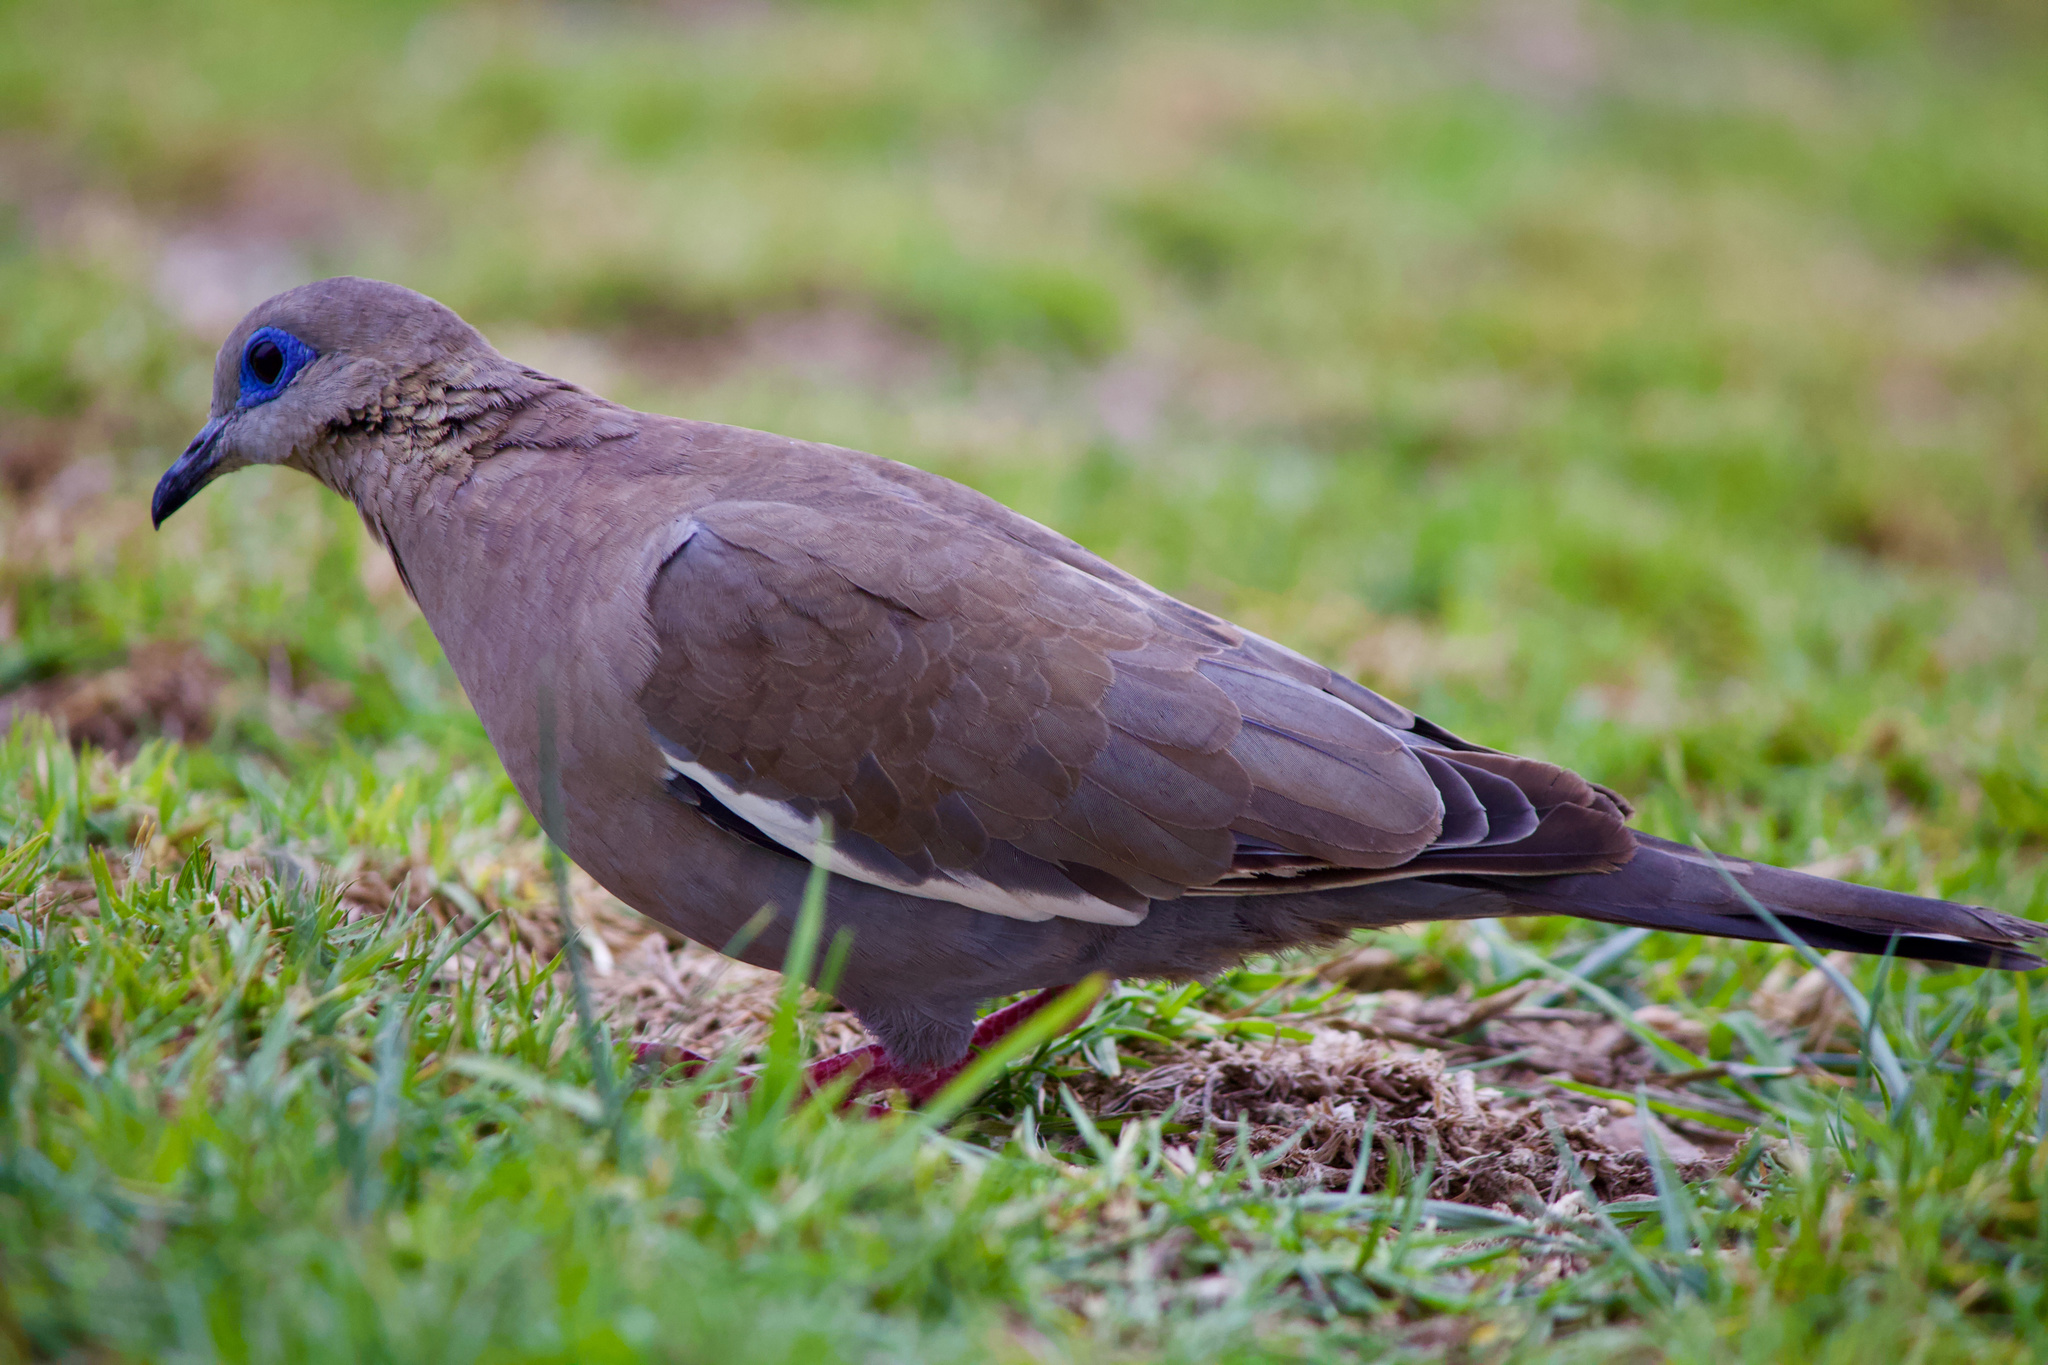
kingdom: Animalia
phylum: Chordata
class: Aves
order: Columbiformes
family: Columbidae
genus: Zenaida
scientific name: Zenaida meloda
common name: West peruvian dove
